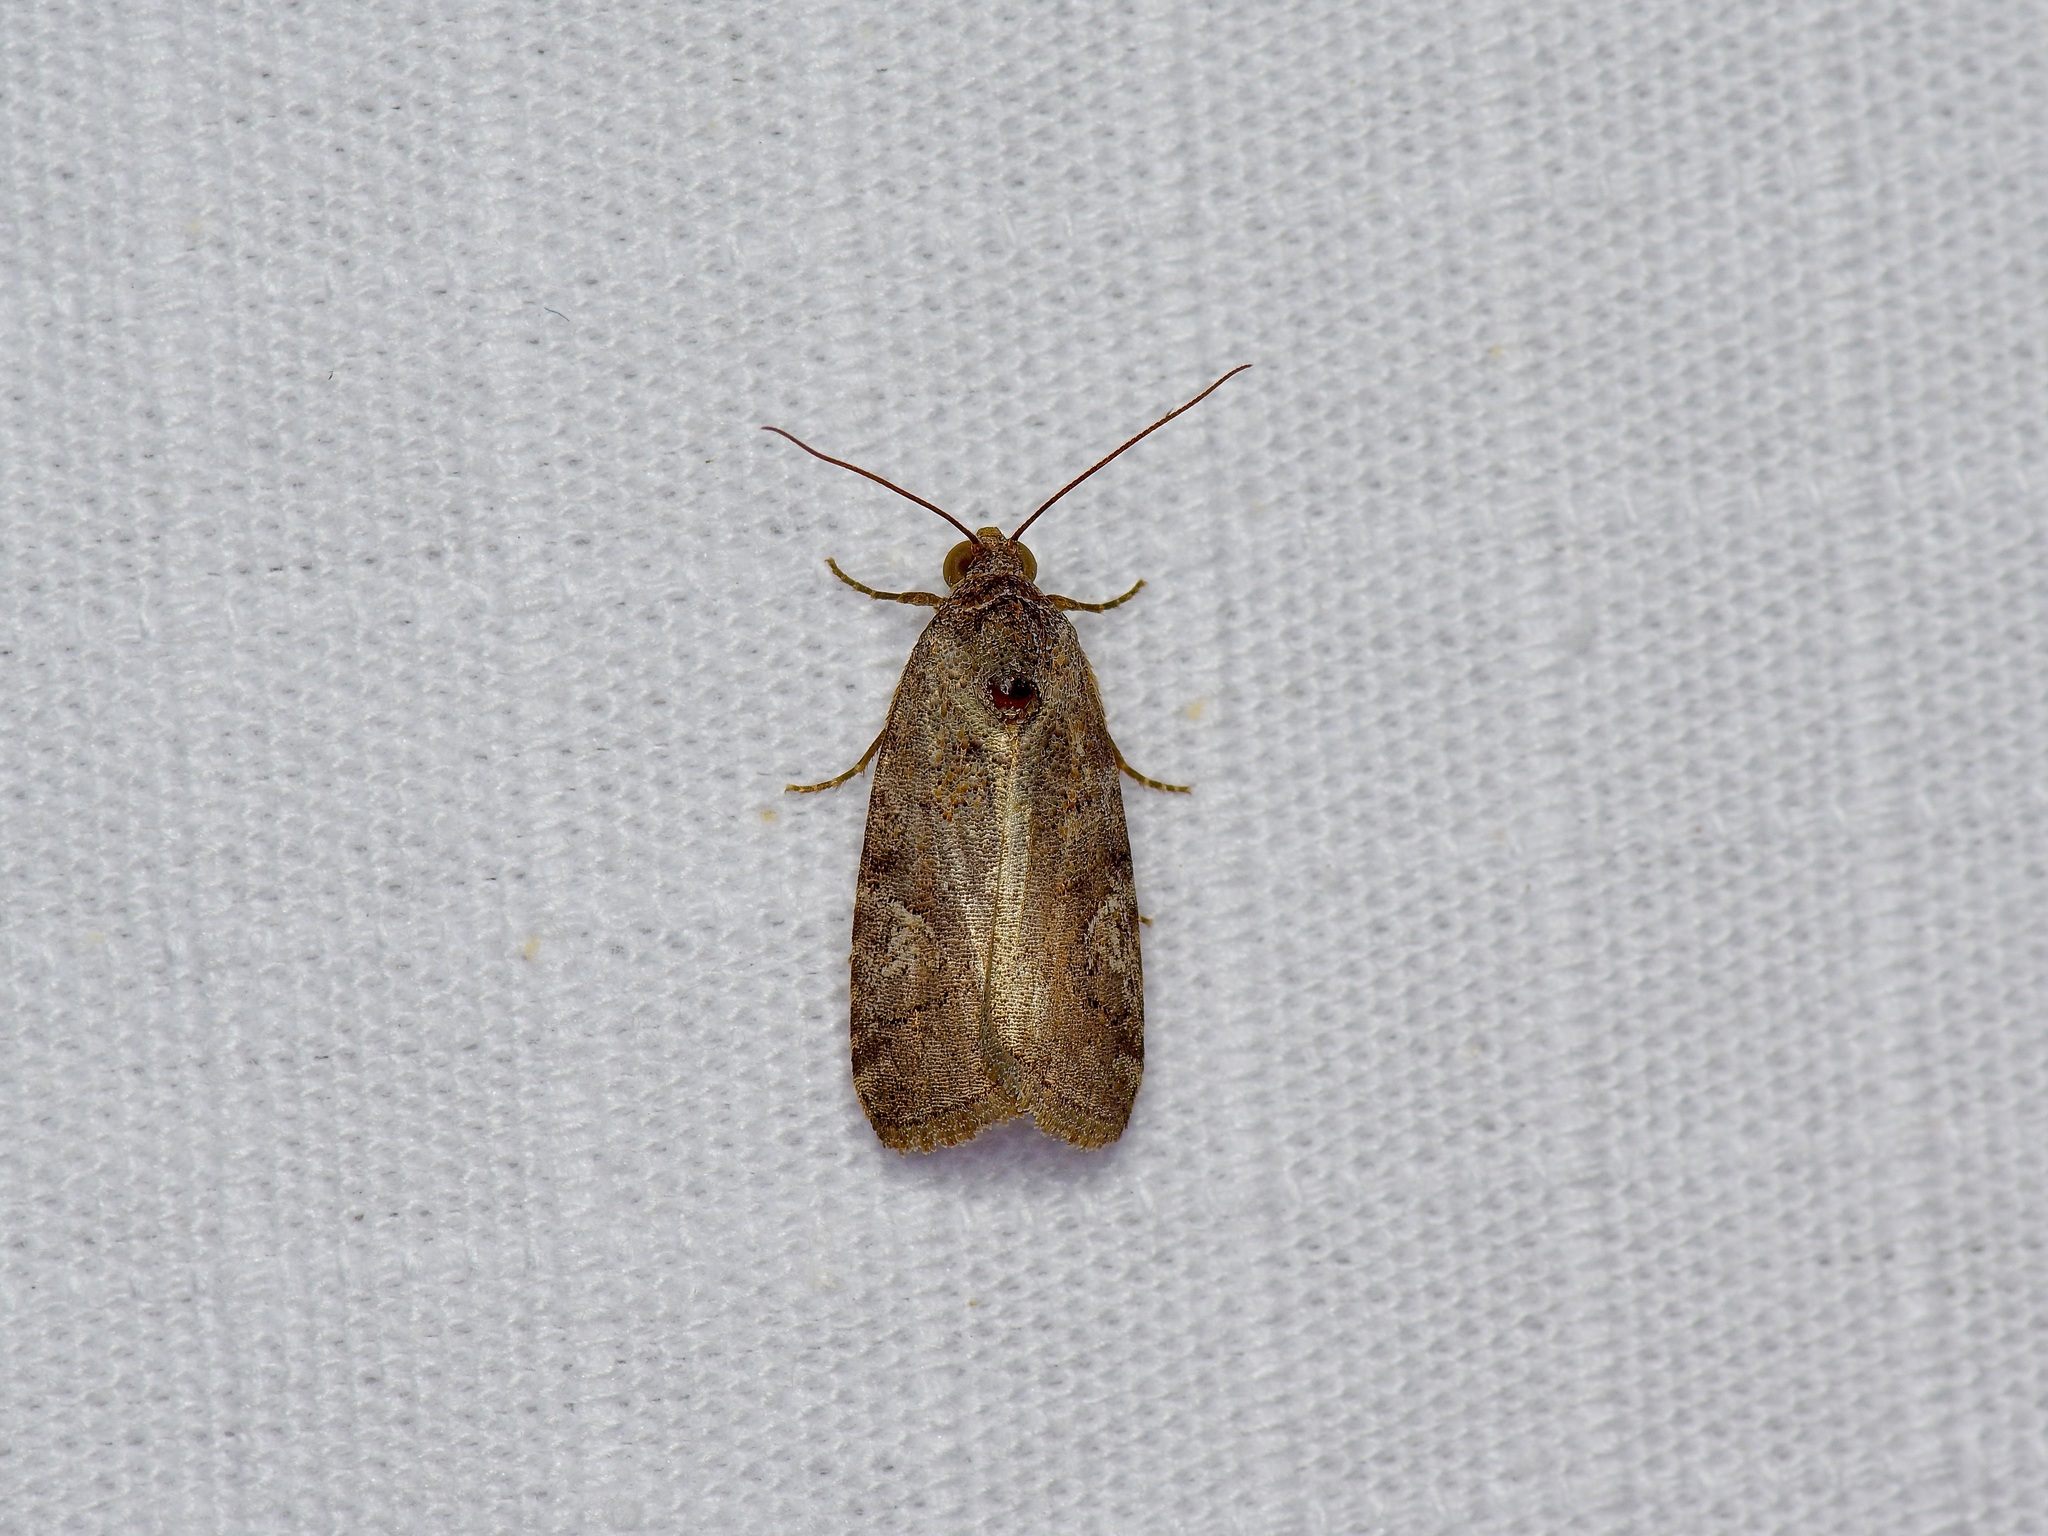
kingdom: Animalia
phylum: Arthropoda
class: Insecta
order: Lepidoptera
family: Noctuidae
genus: Metaponpneumata
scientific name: Metaponpneumata rogenhoferi
